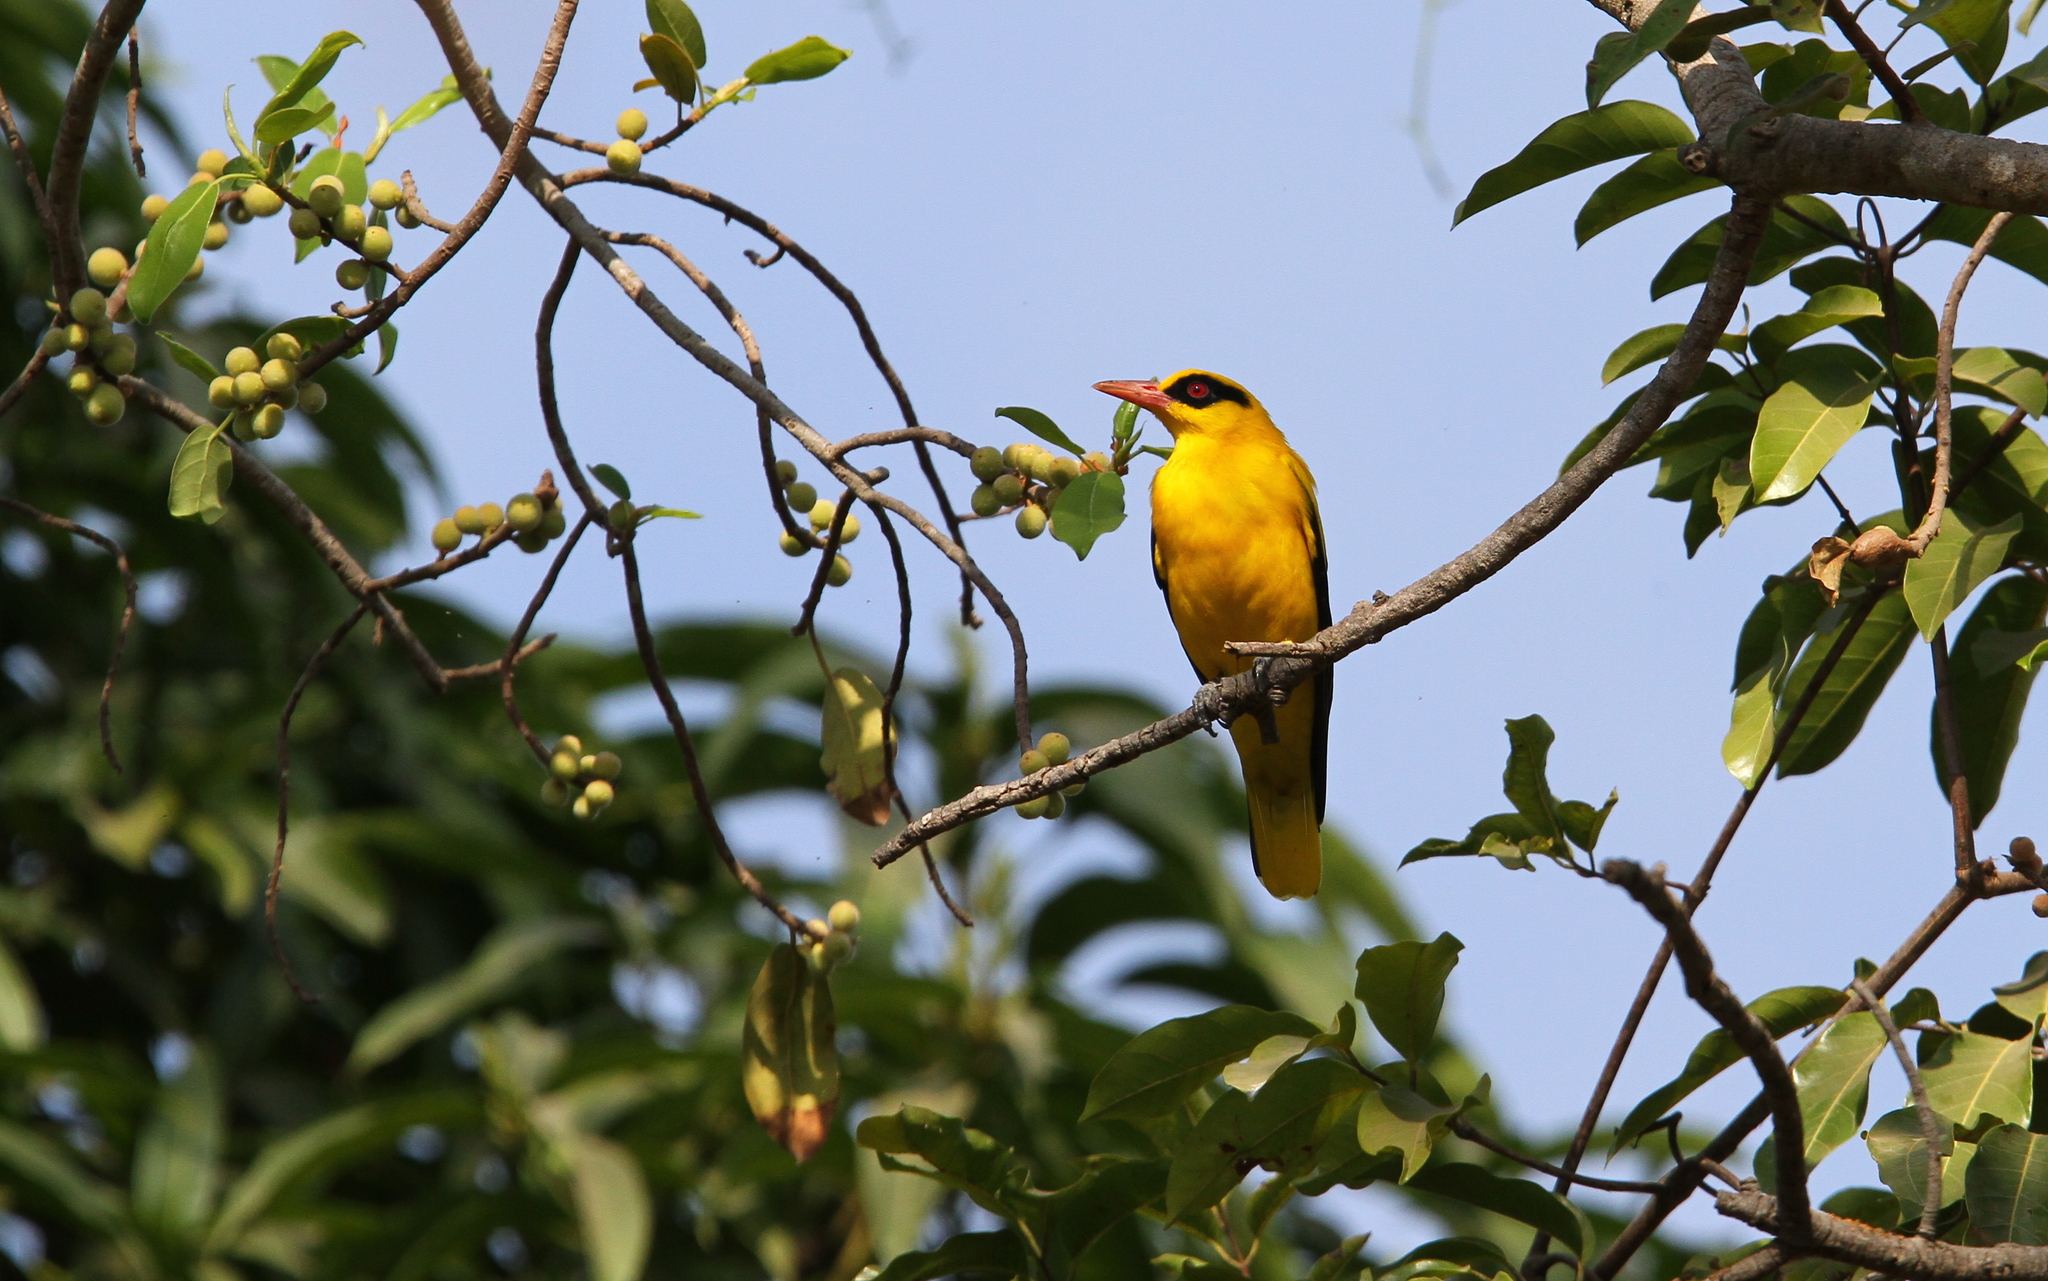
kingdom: Animalia
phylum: Chordata
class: Aves
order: Passeriformes
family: Oriolidae
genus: Oriolus
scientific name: Oriolus auratus
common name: African golden oriole
